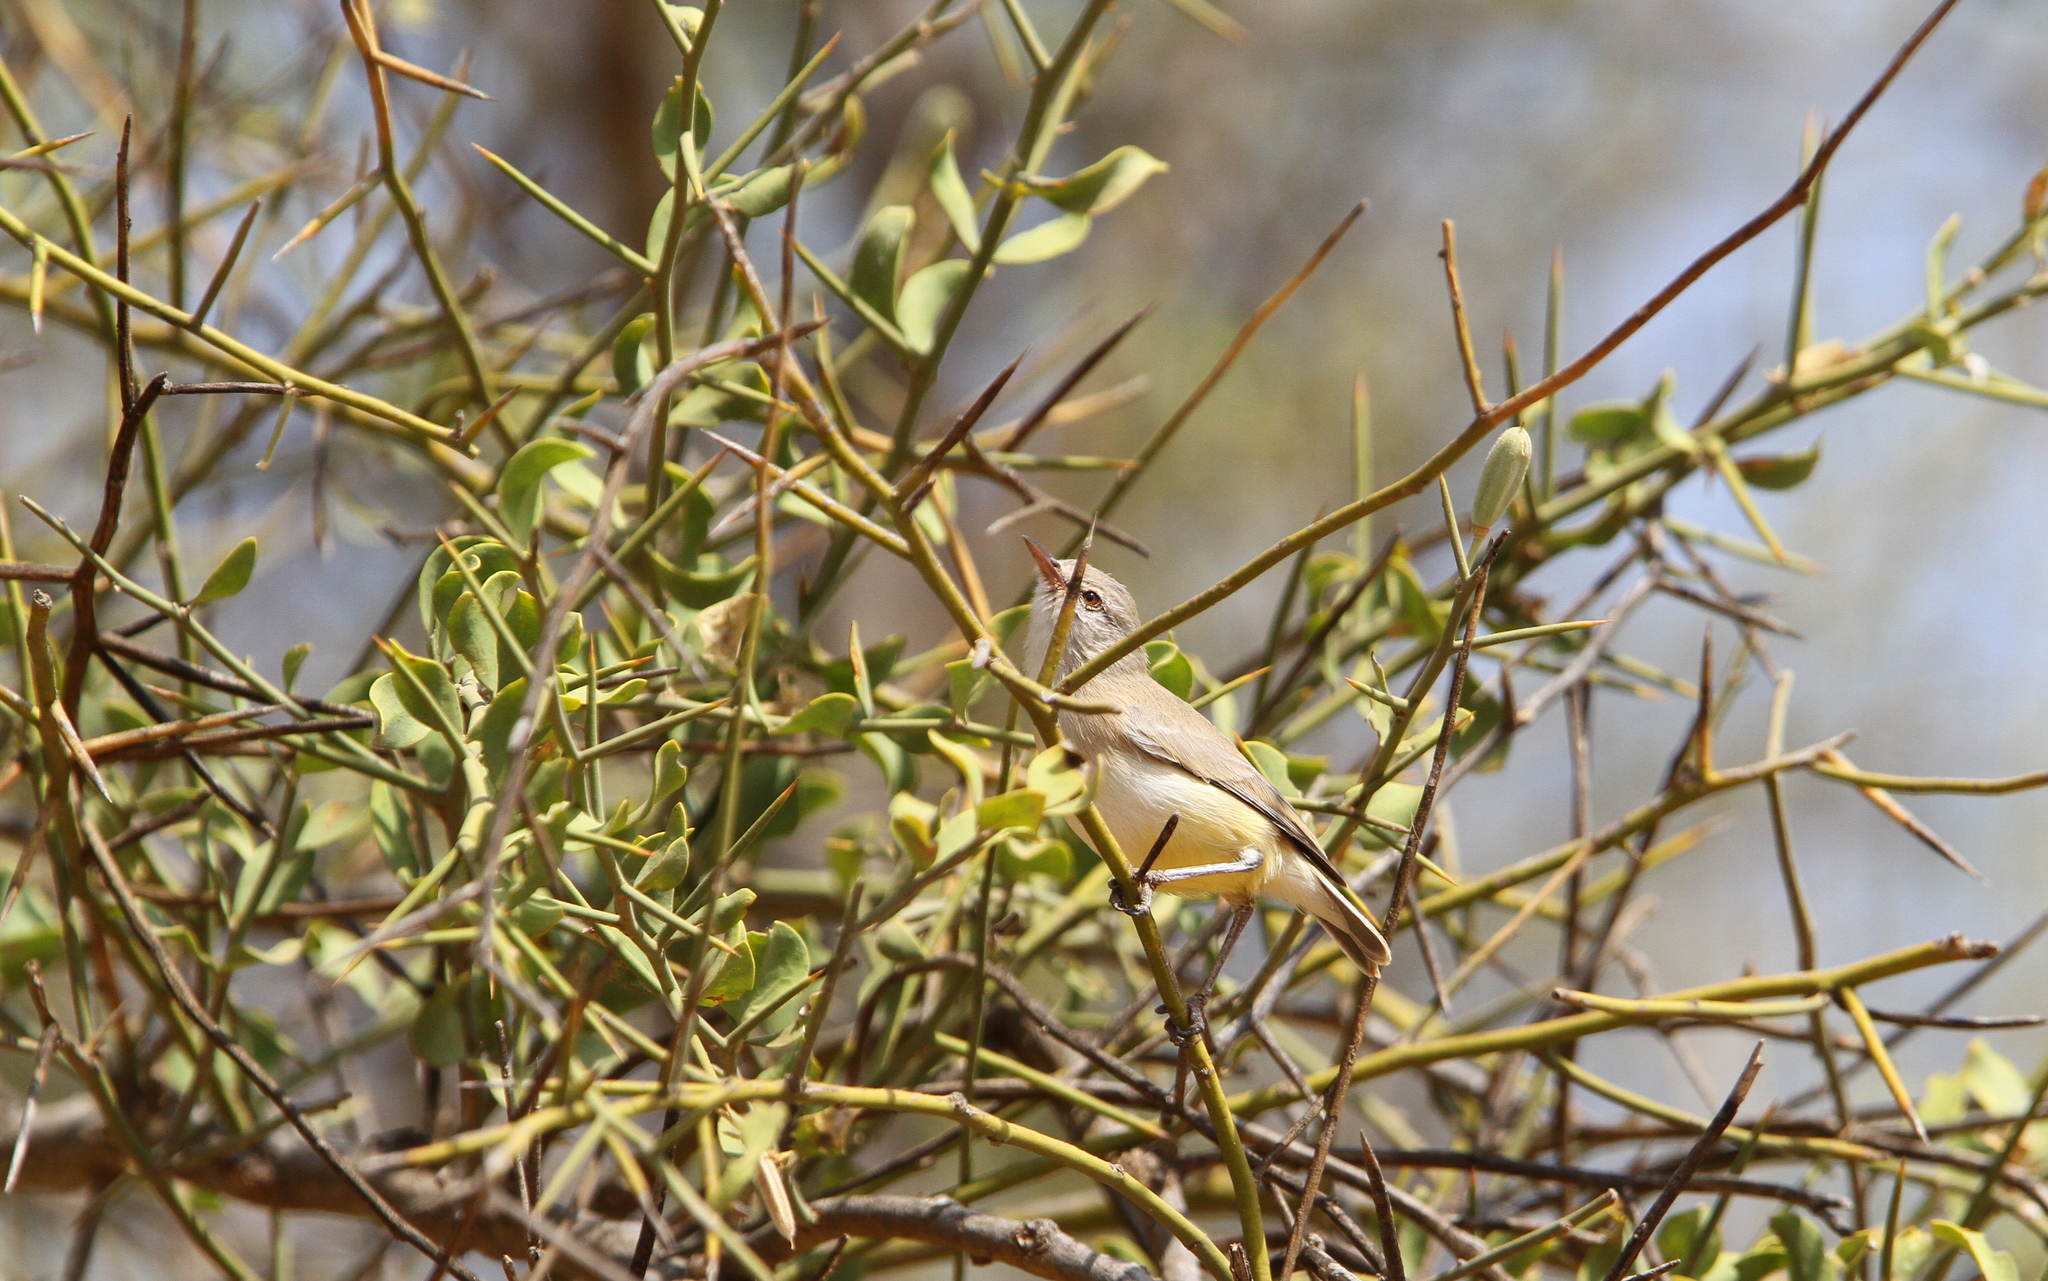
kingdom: Animalia
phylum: Chordata
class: Aves
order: Passeriformes
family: Cisticolidae
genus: Eremomela
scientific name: Eremomela icteropygialis
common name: Yellow-bellied eremomela
